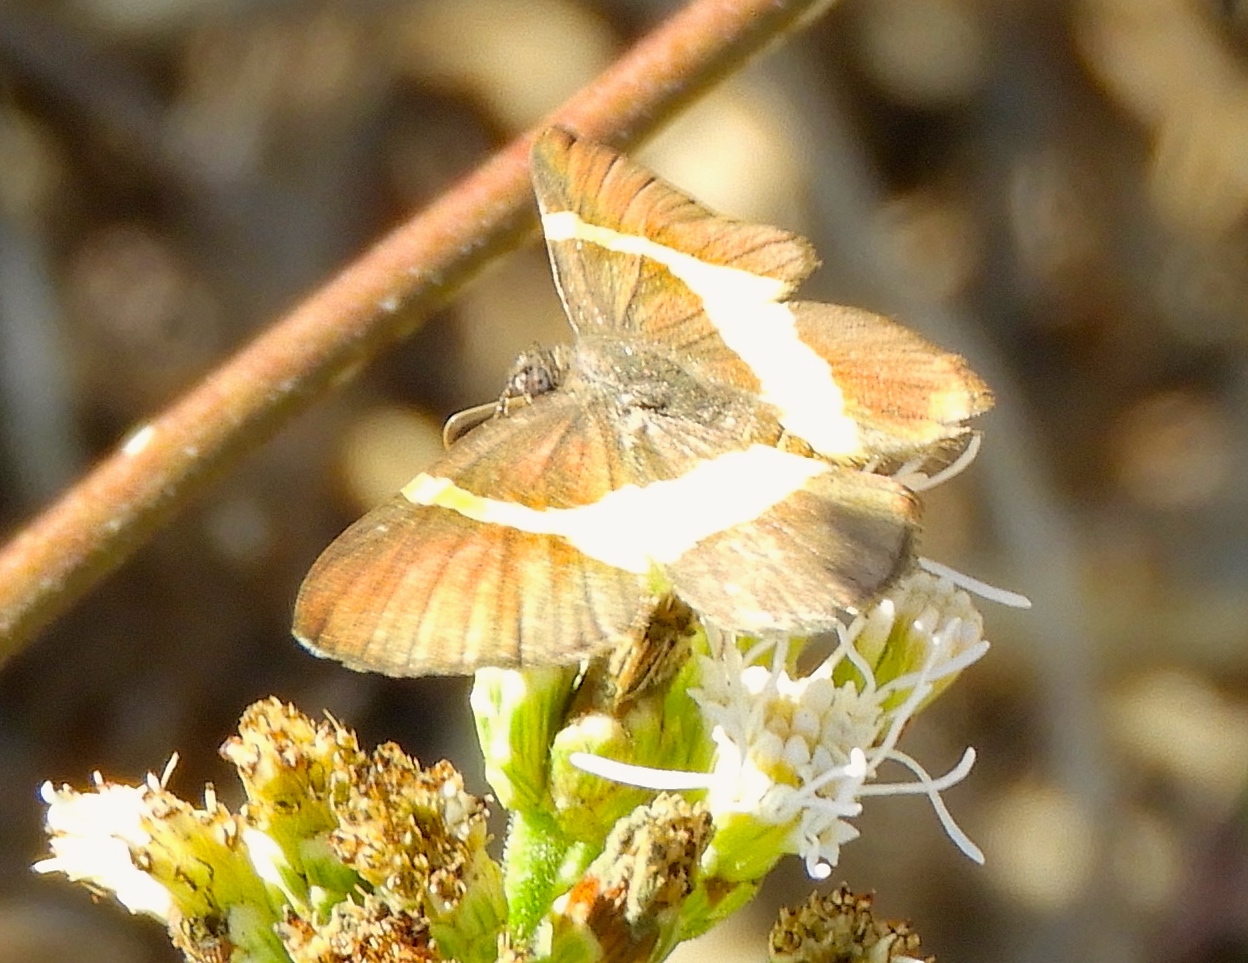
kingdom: Animalia
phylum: Arthropoda
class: Insecta
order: Lepidoptera
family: Riodinidae
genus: Notheme
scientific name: Notheme eumeus
